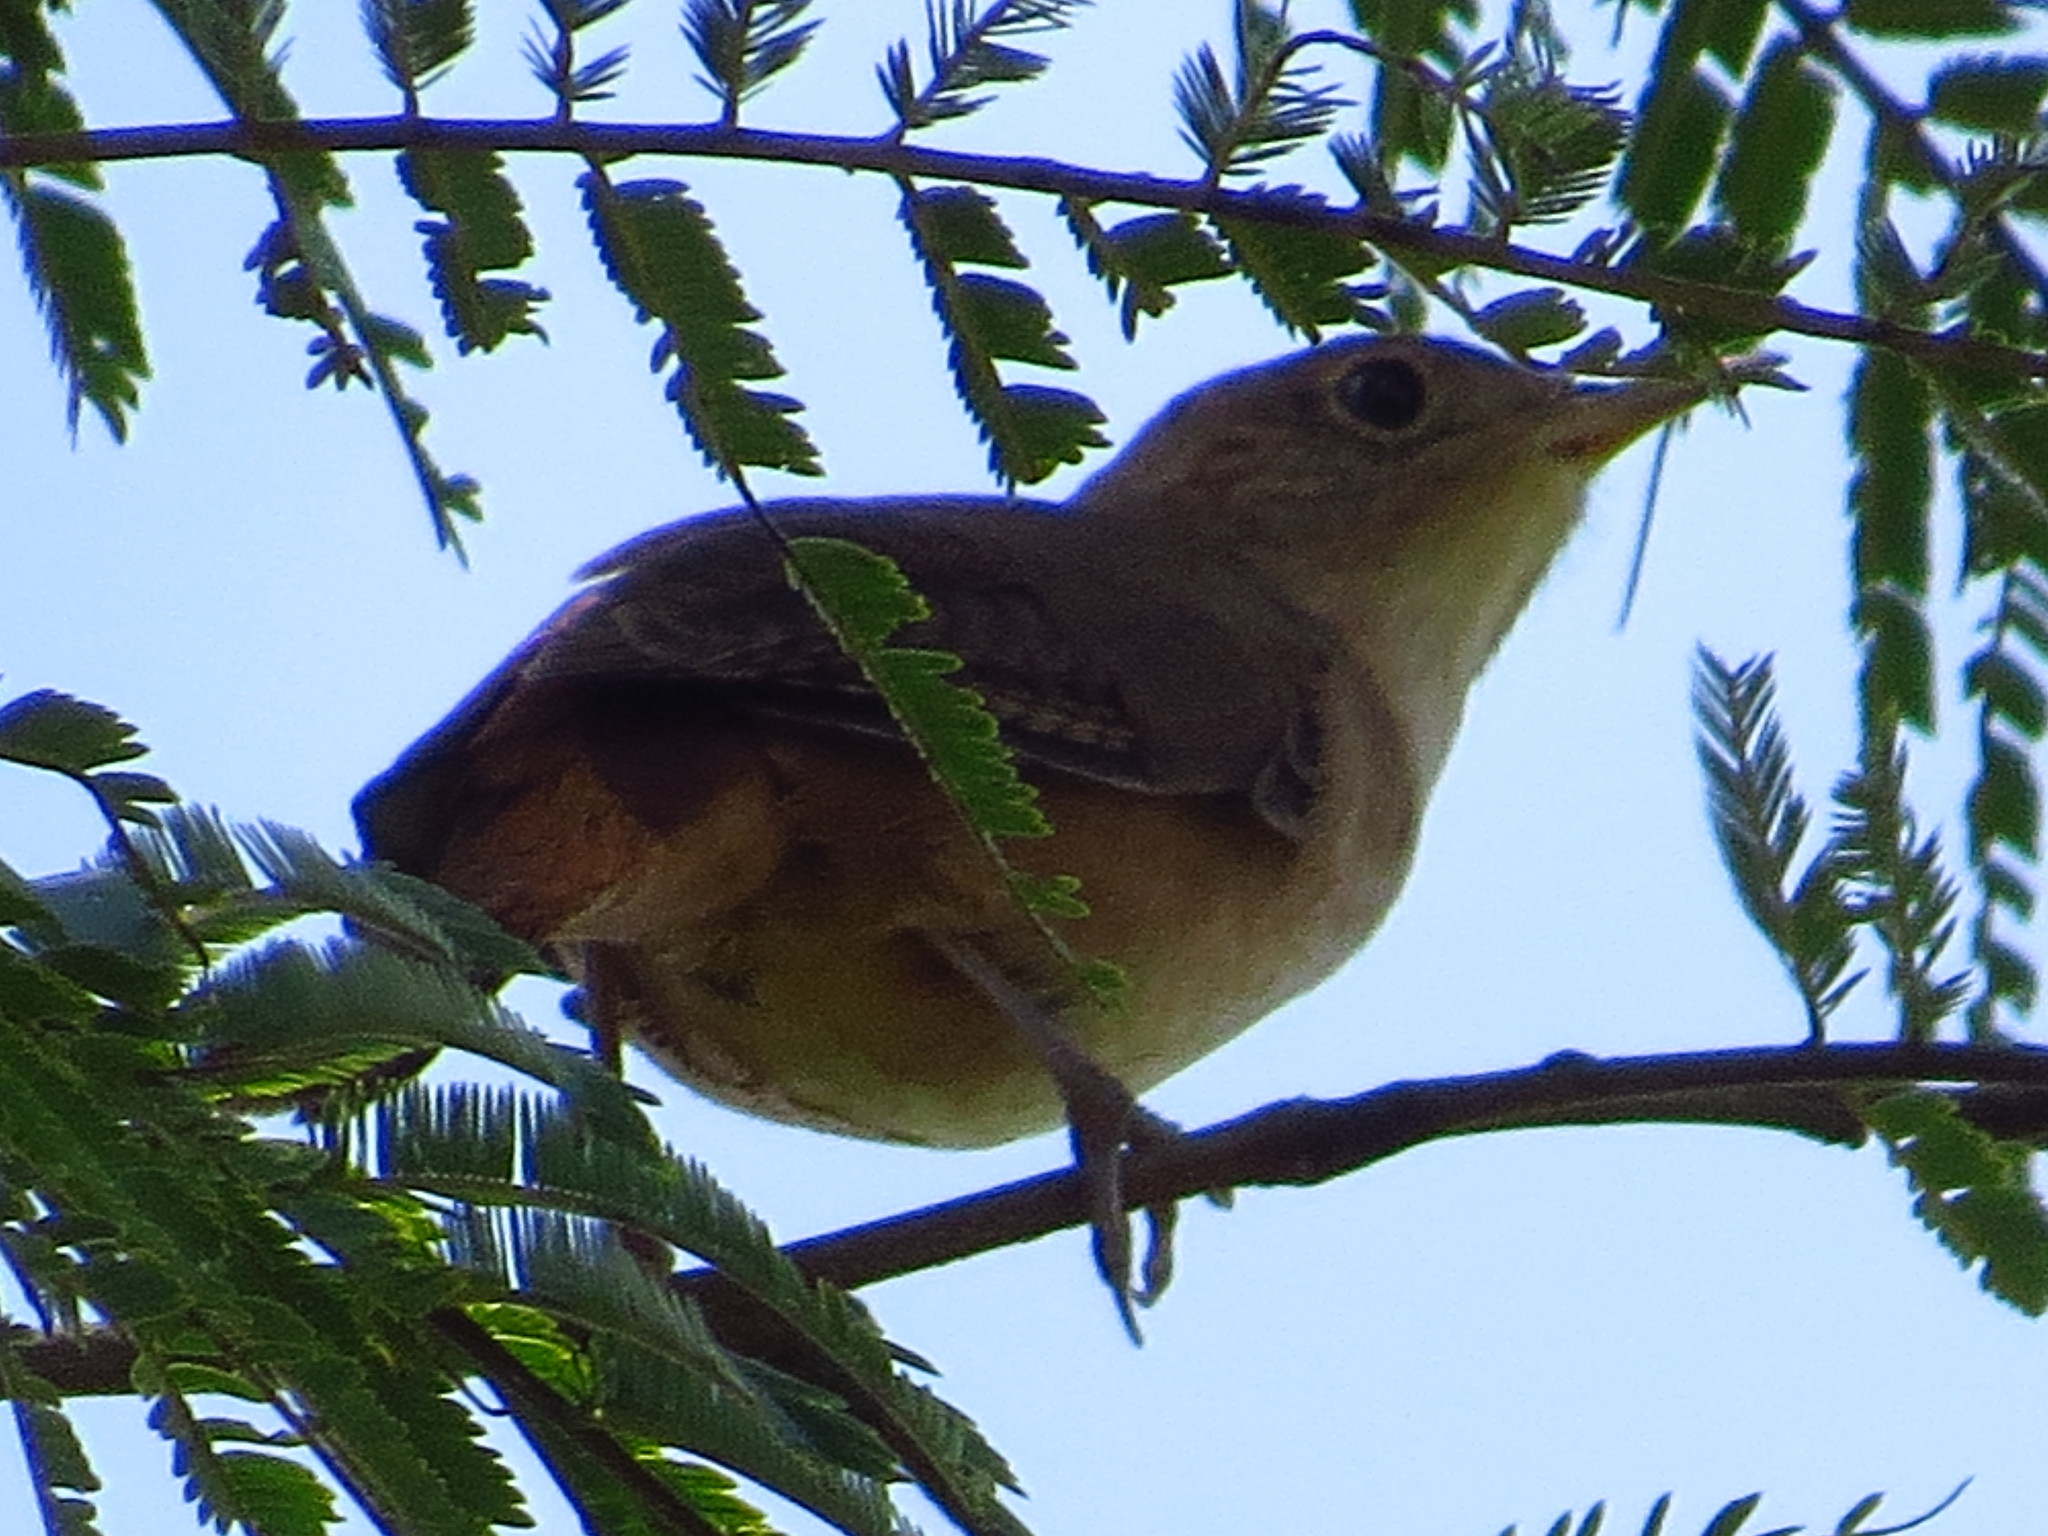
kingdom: Animalia
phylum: Chordata
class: Aves
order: Passeriformes
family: Troglodytidae
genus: Troglodytes
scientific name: Troglodytes aedon
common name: House wren
